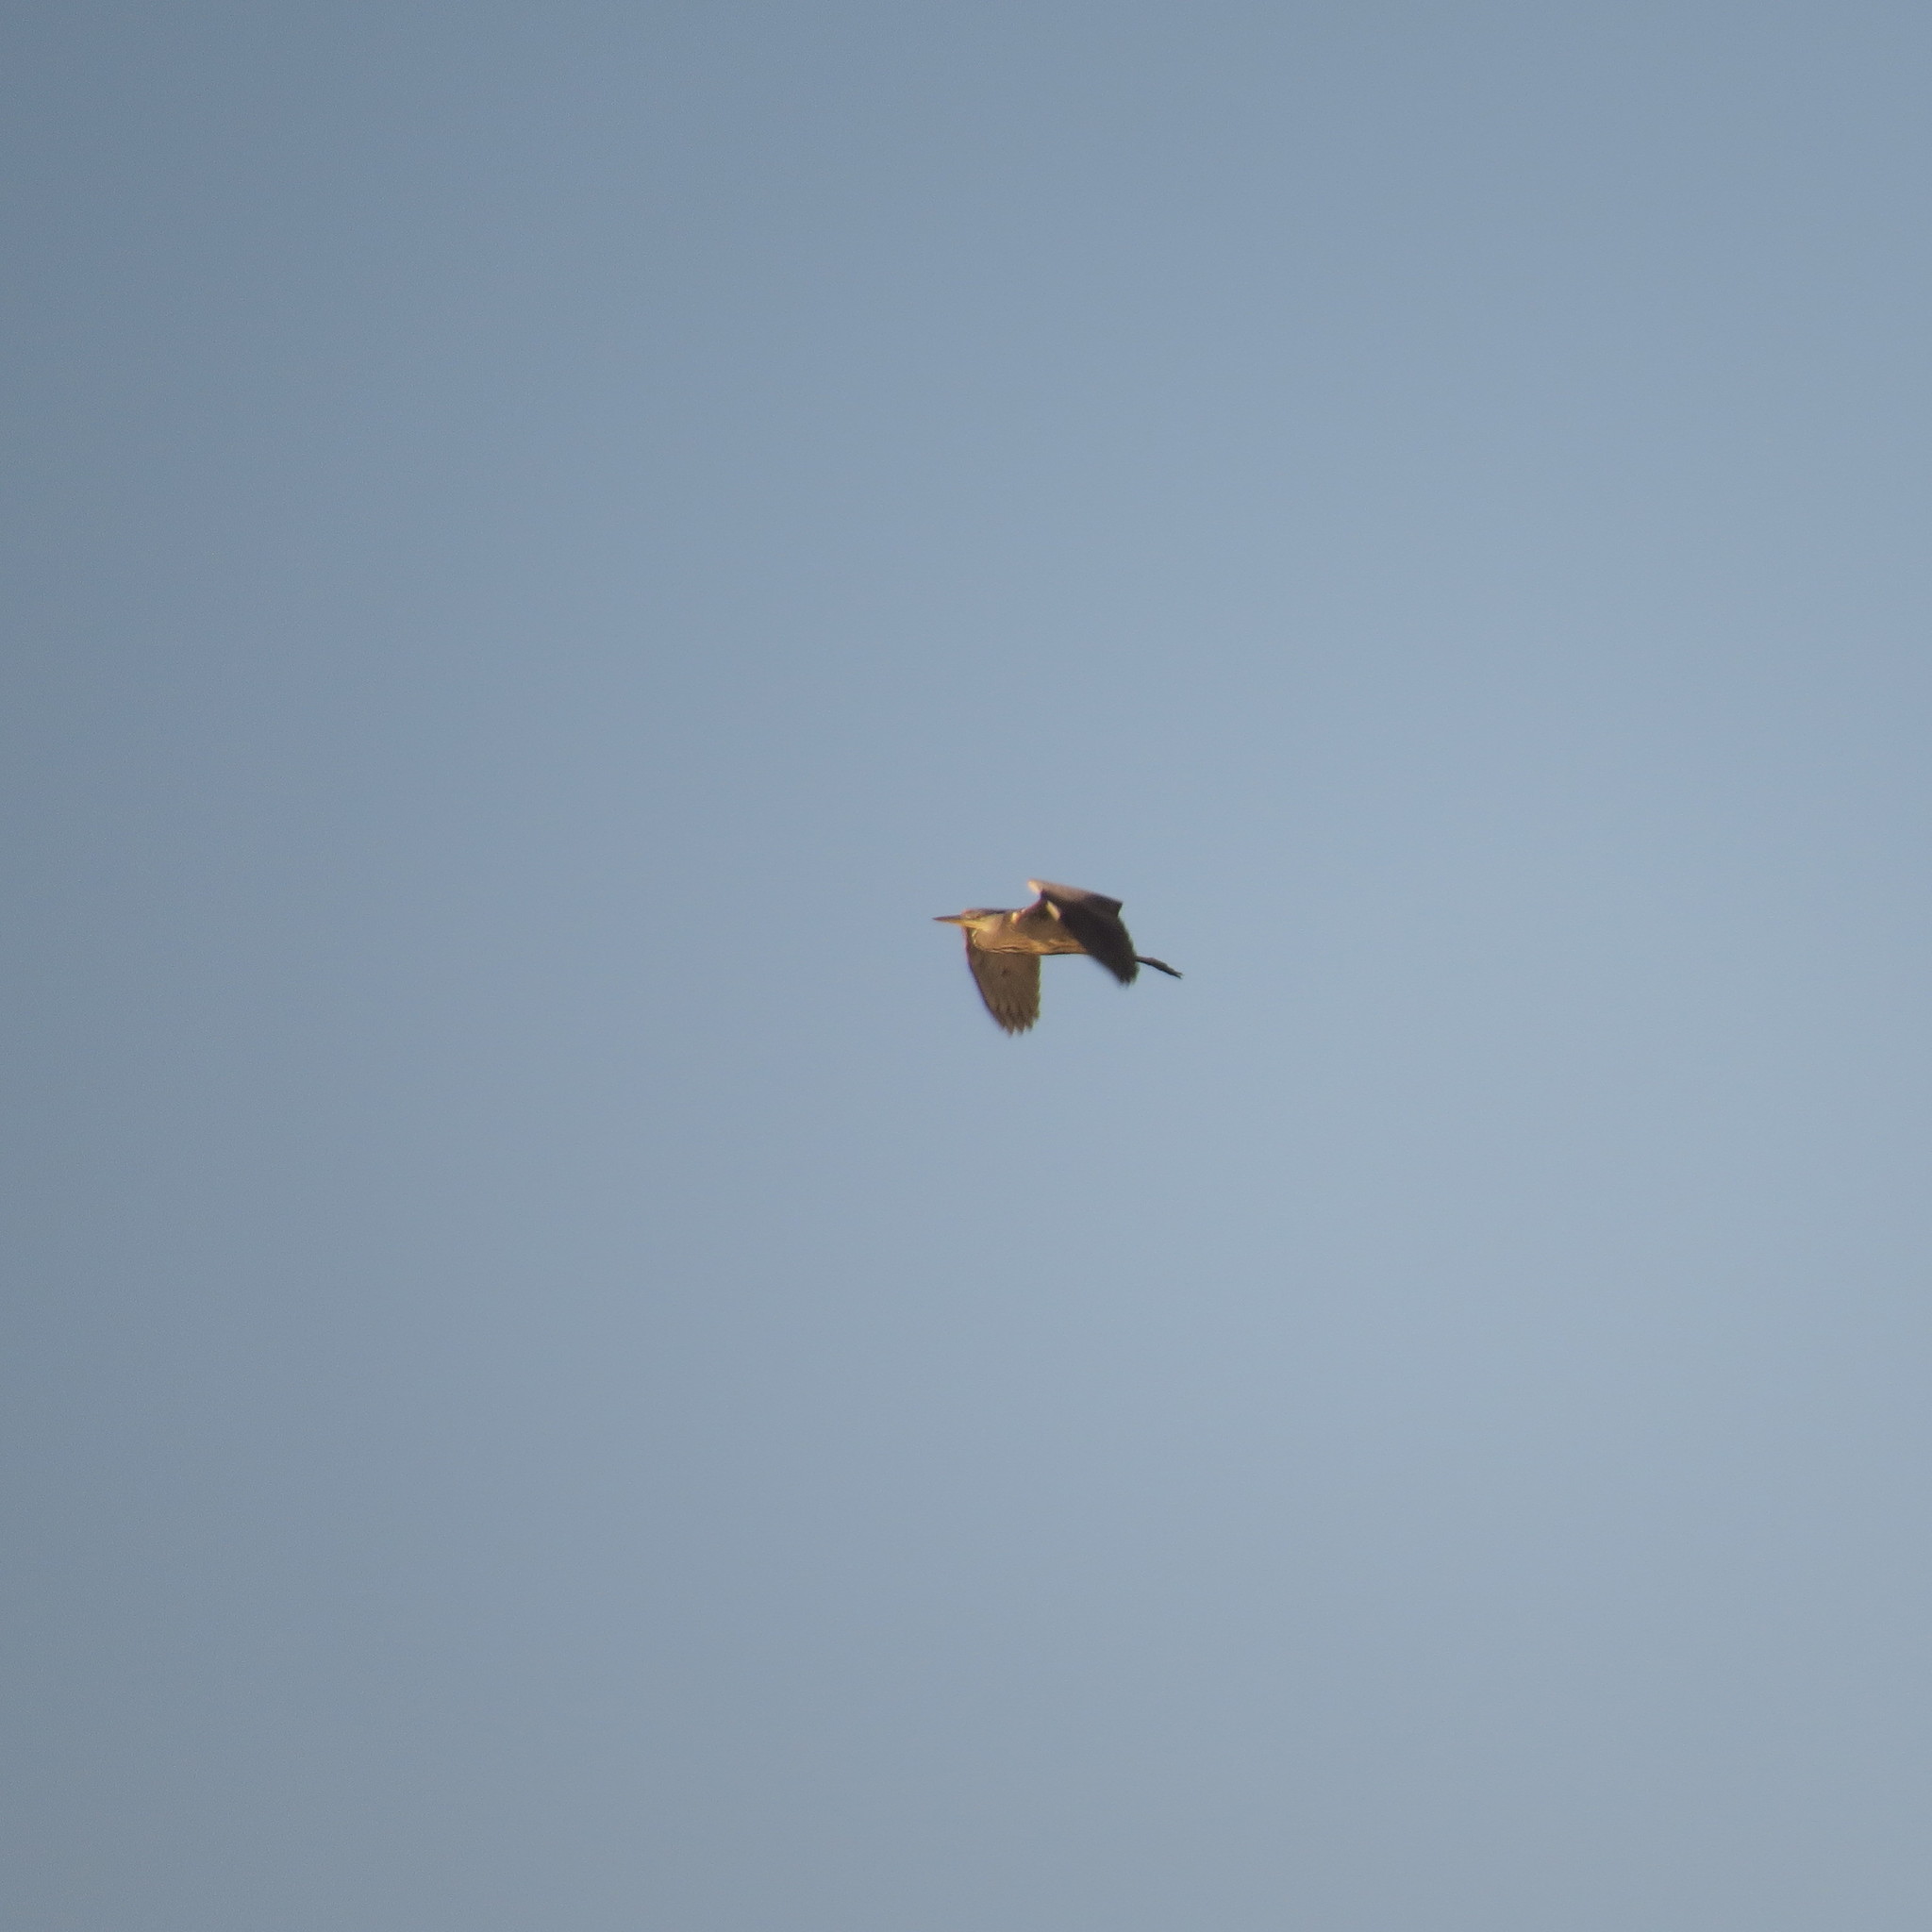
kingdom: Animalia
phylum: Chordata
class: Aves
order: Pelecaniformes
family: Ardeidae
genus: Ardea
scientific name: Ardea cinerea
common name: Grey heron
